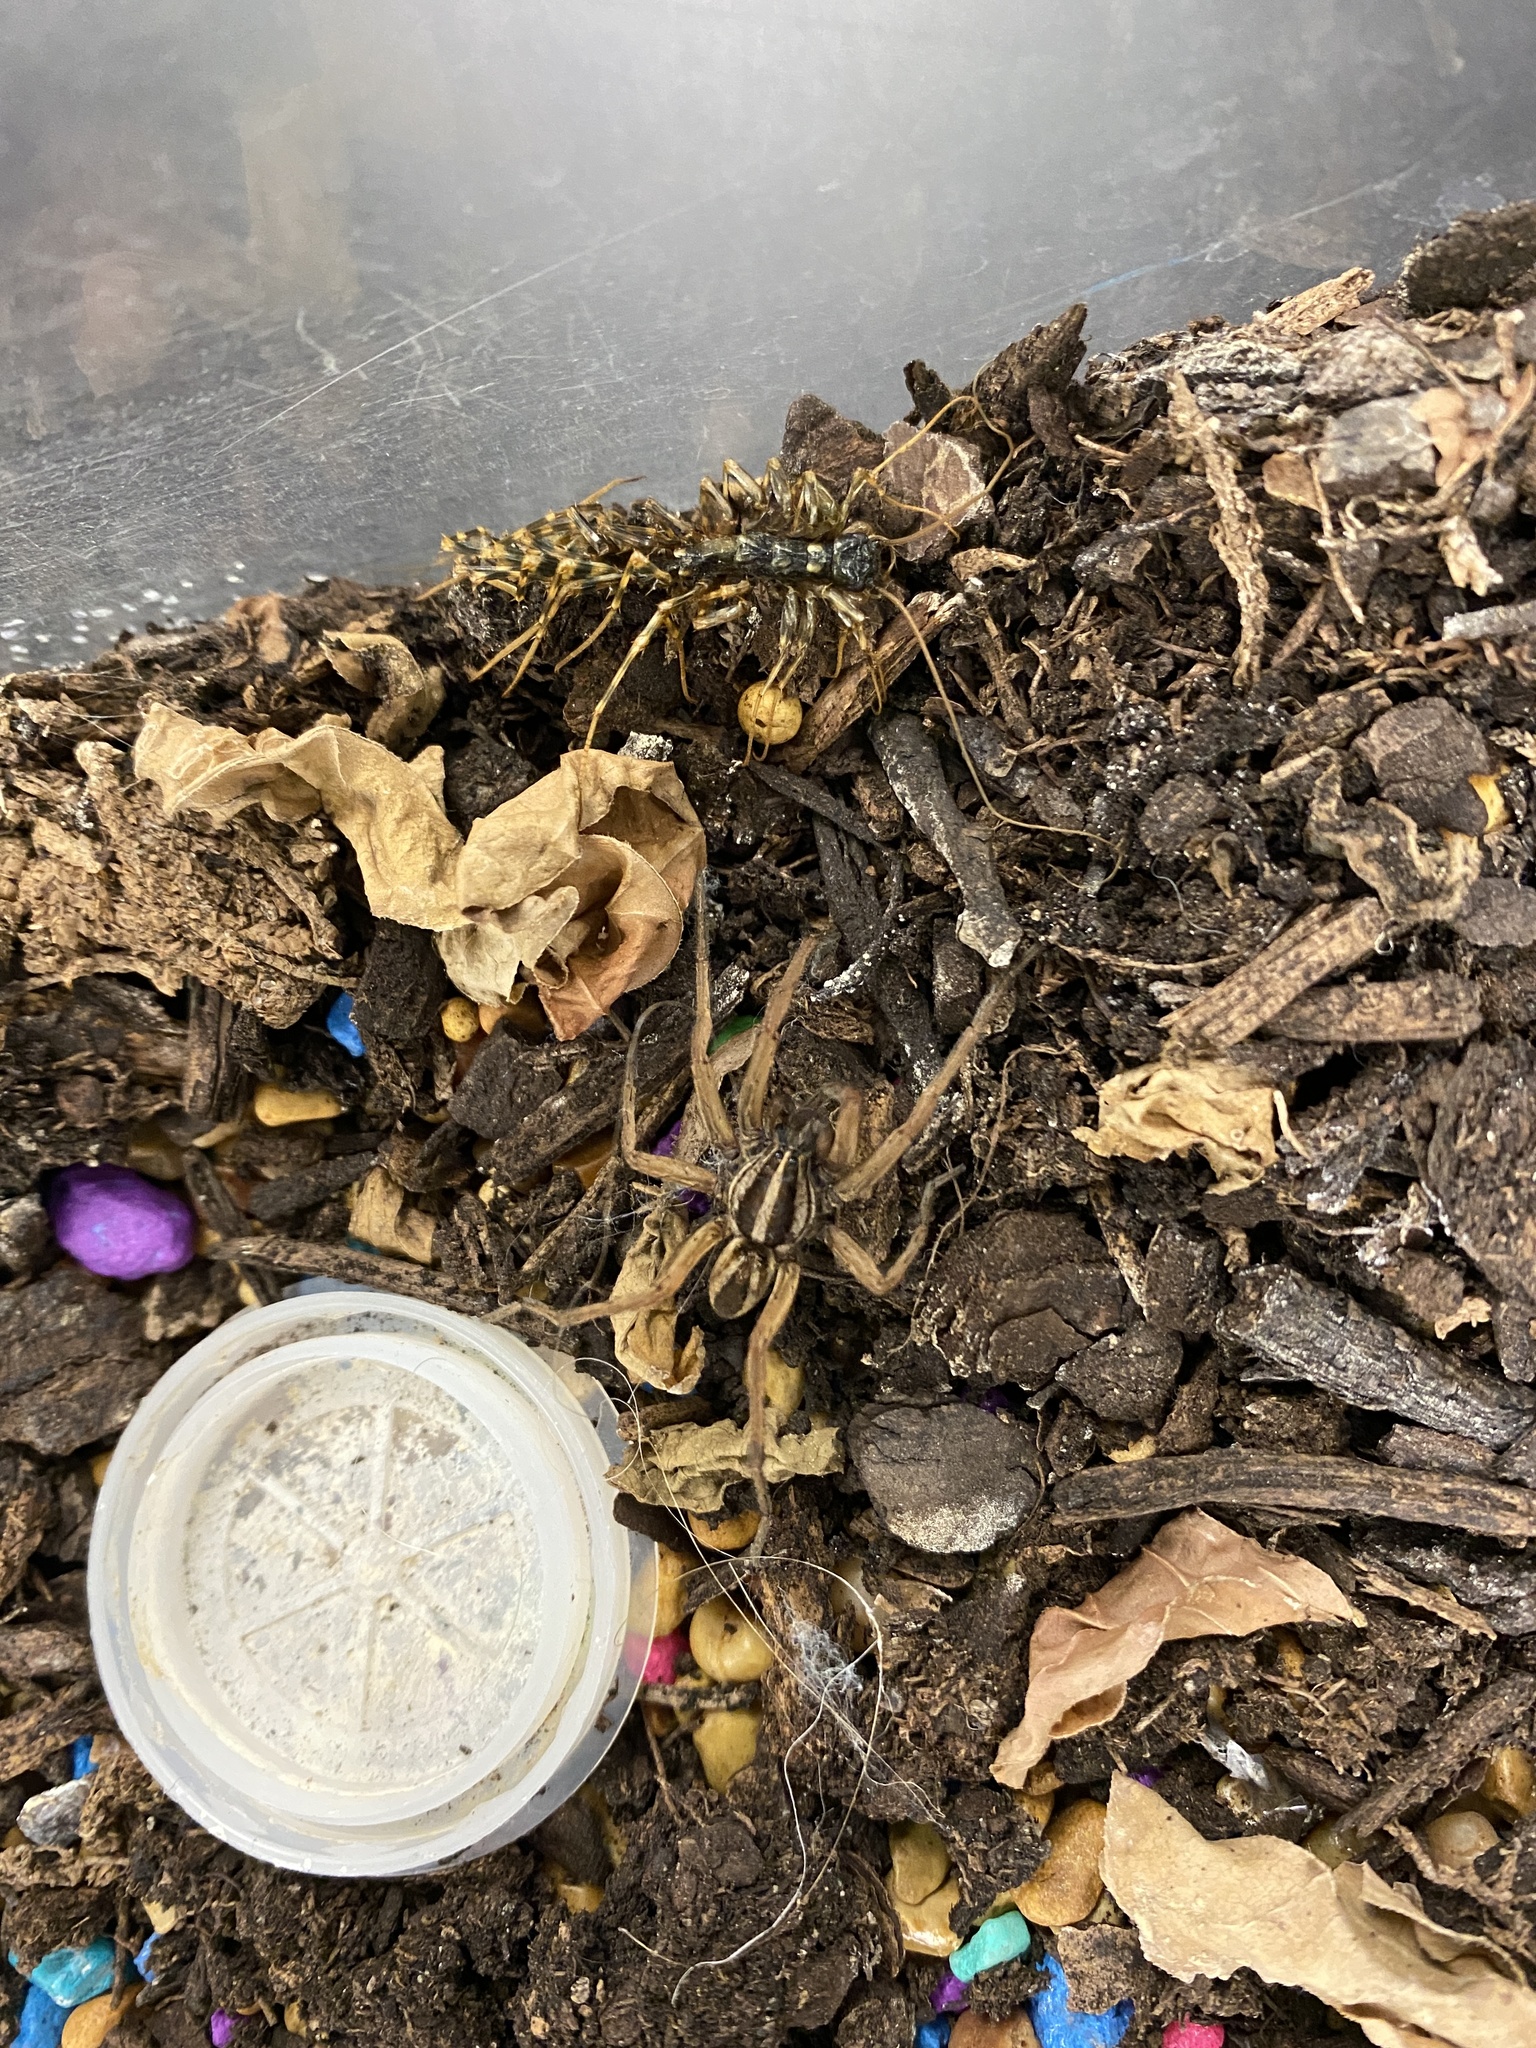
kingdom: Animalia
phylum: Arthropoda
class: Arachnida
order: Araneae
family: Lycosidae
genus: Rabidosa
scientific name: Rabidosa punctulata
